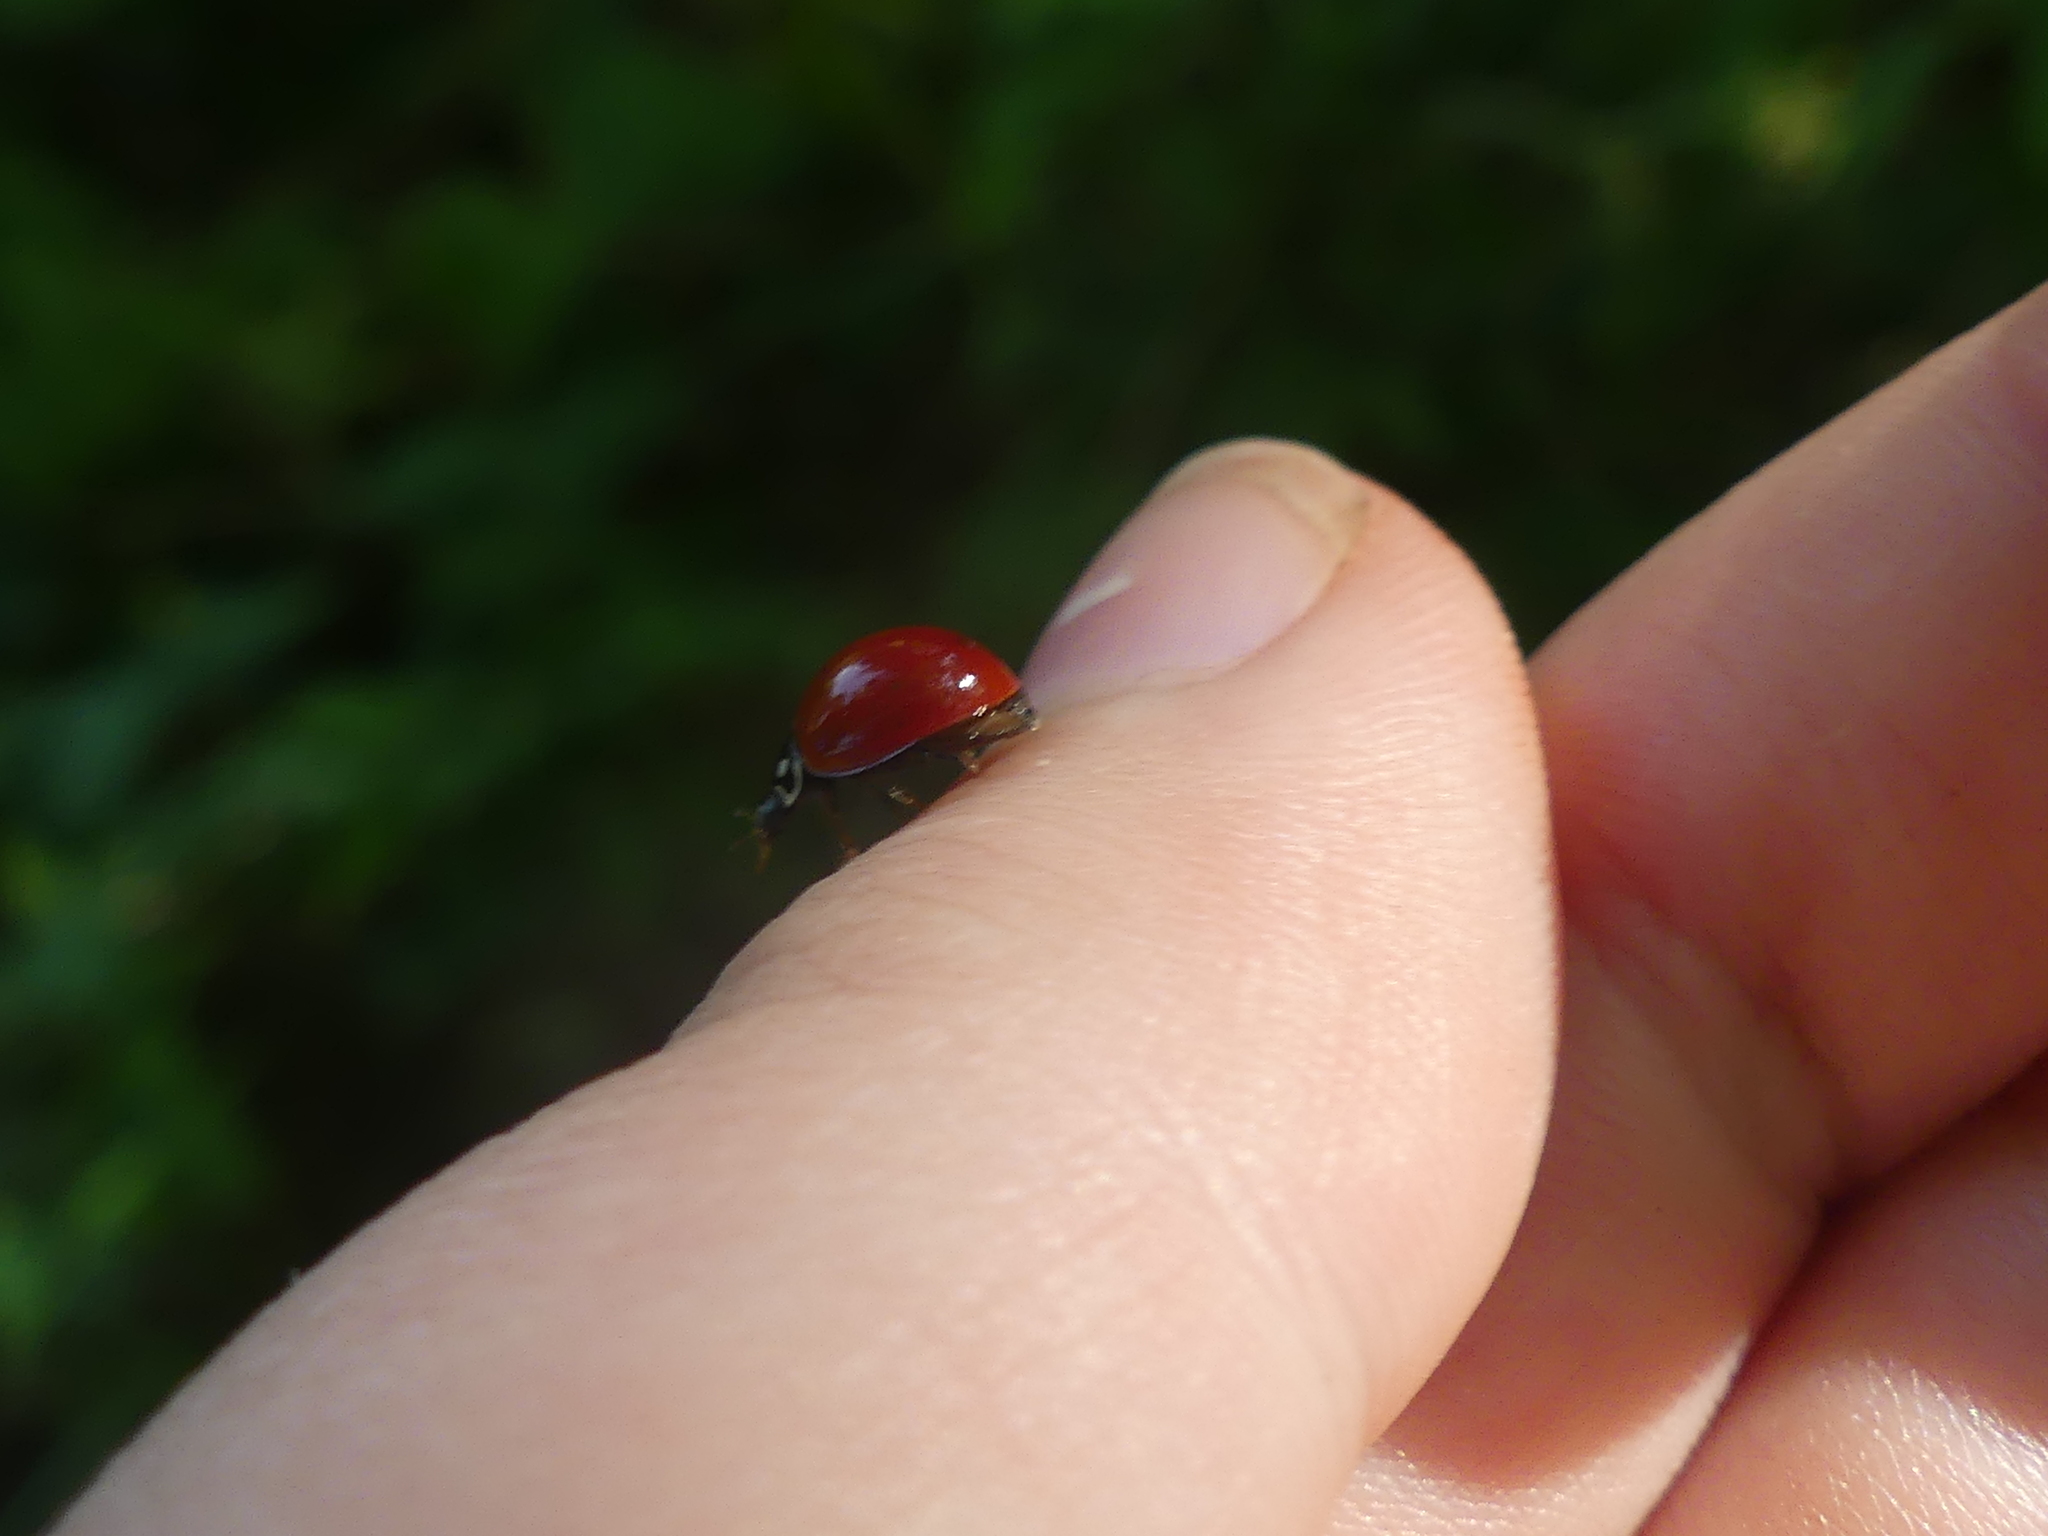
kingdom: Animalia
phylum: Arthropoda
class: Insecta
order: Coleoptera
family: Coccinellidae
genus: Cycloneda
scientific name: Cycloneda sanguinea
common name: Ladybird beetle
